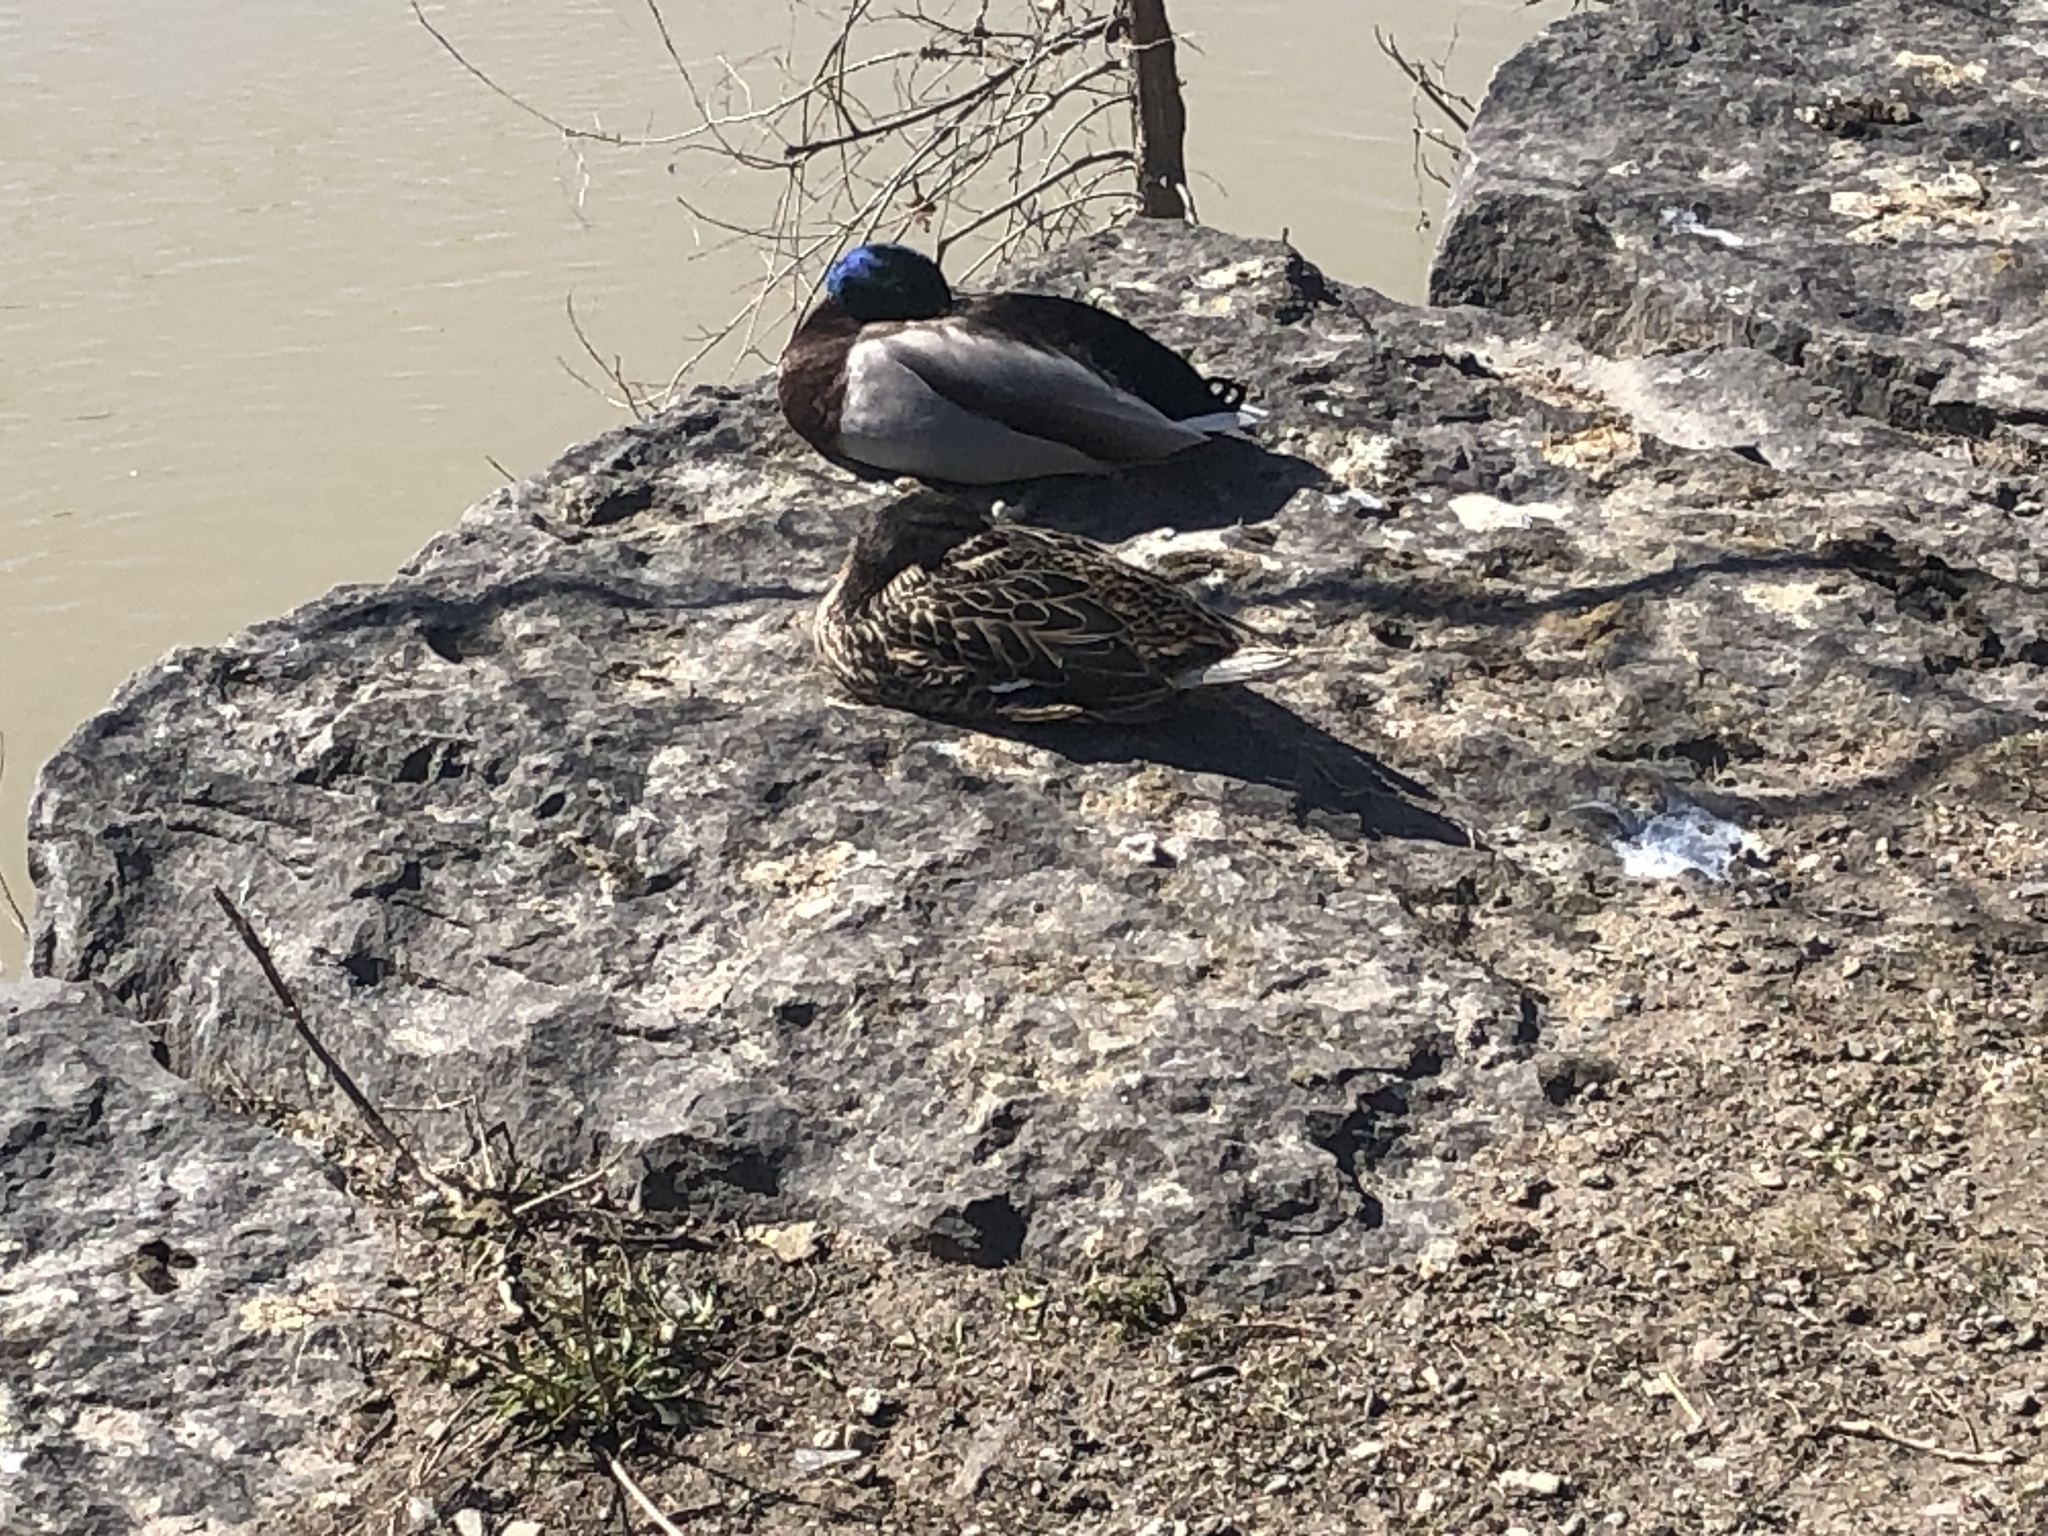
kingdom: Animalia
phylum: Chordata
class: Aves
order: Anseriformes
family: Anatidae
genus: Anas
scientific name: Anas platyrhynchos
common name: Mallard
